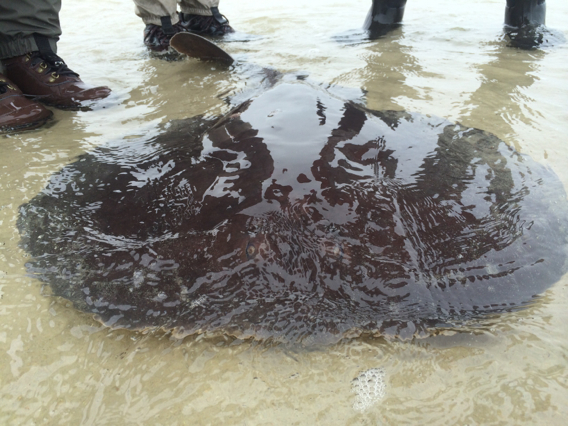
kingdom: Animalia
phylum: Chordata
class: Elasmobranchii
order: Torpediniformes
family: Torpedinidae
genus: Tetronarce
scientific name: Tetronarce nobiliana
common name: Electric ray
